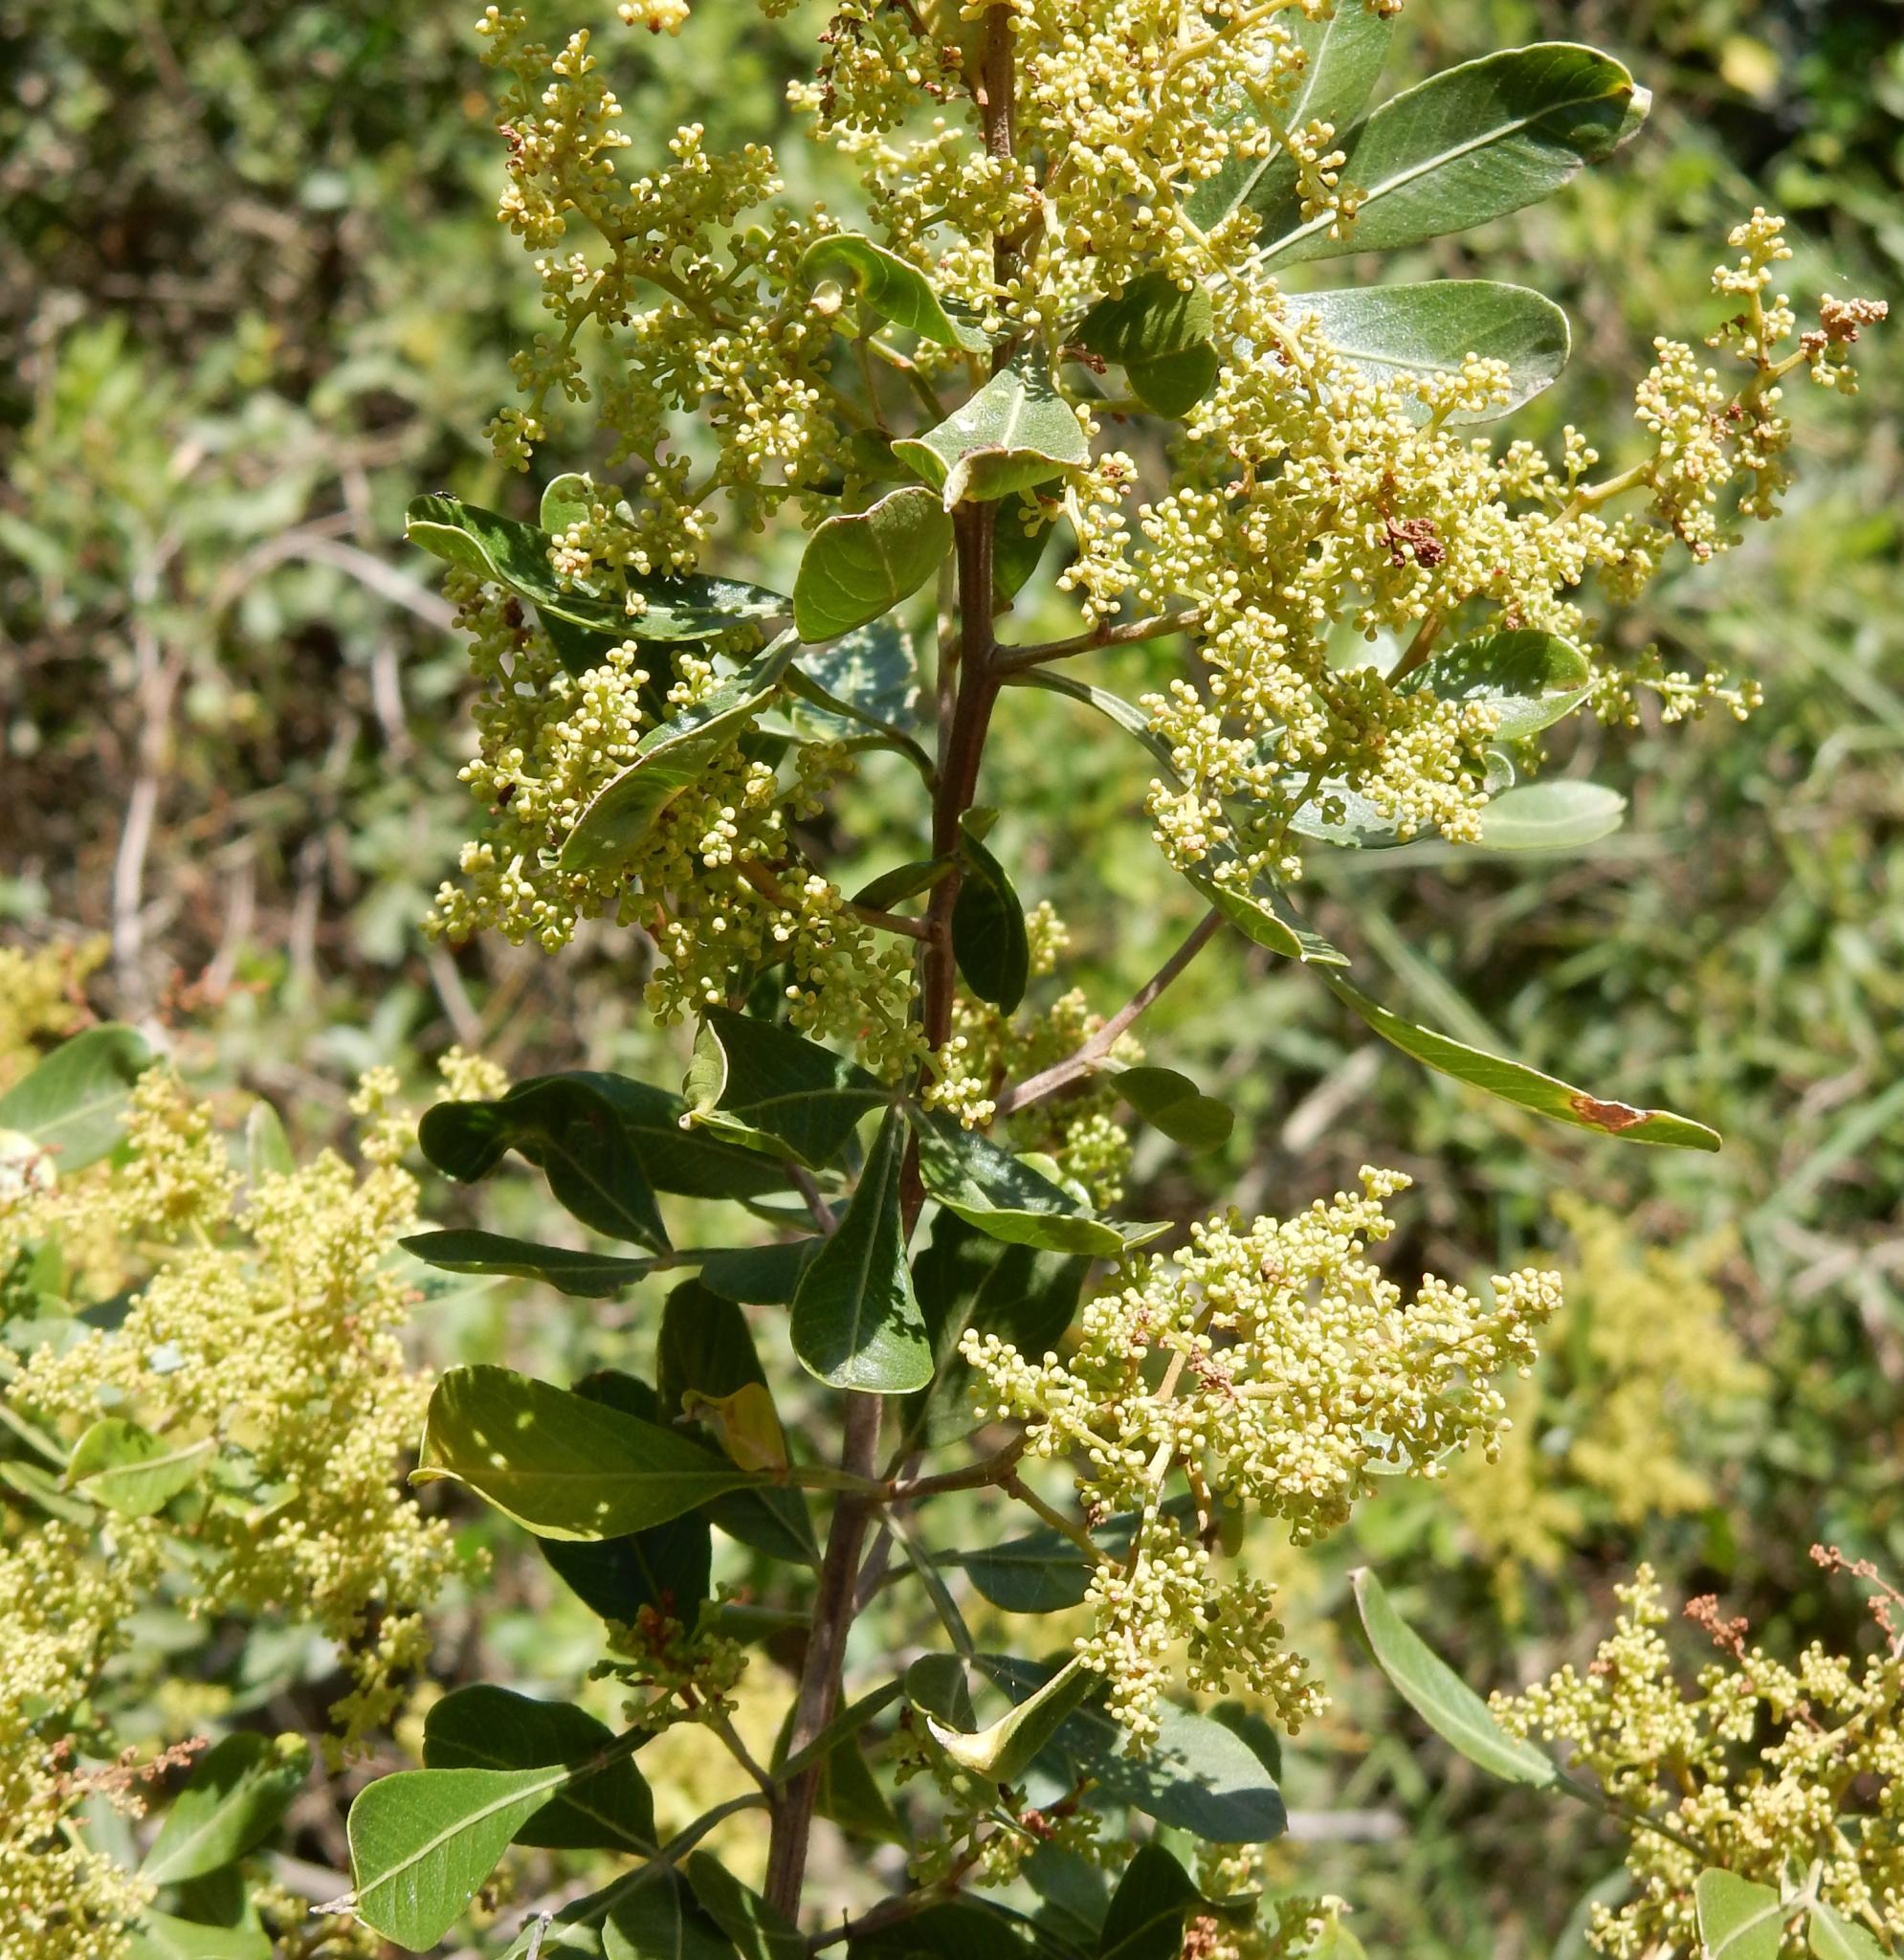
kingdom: Plantae
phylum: Tracheophyta
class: Magnoliopsida
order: Sapindales
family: Anacardiaceae
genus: Searsia
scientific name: Searsia pallens
